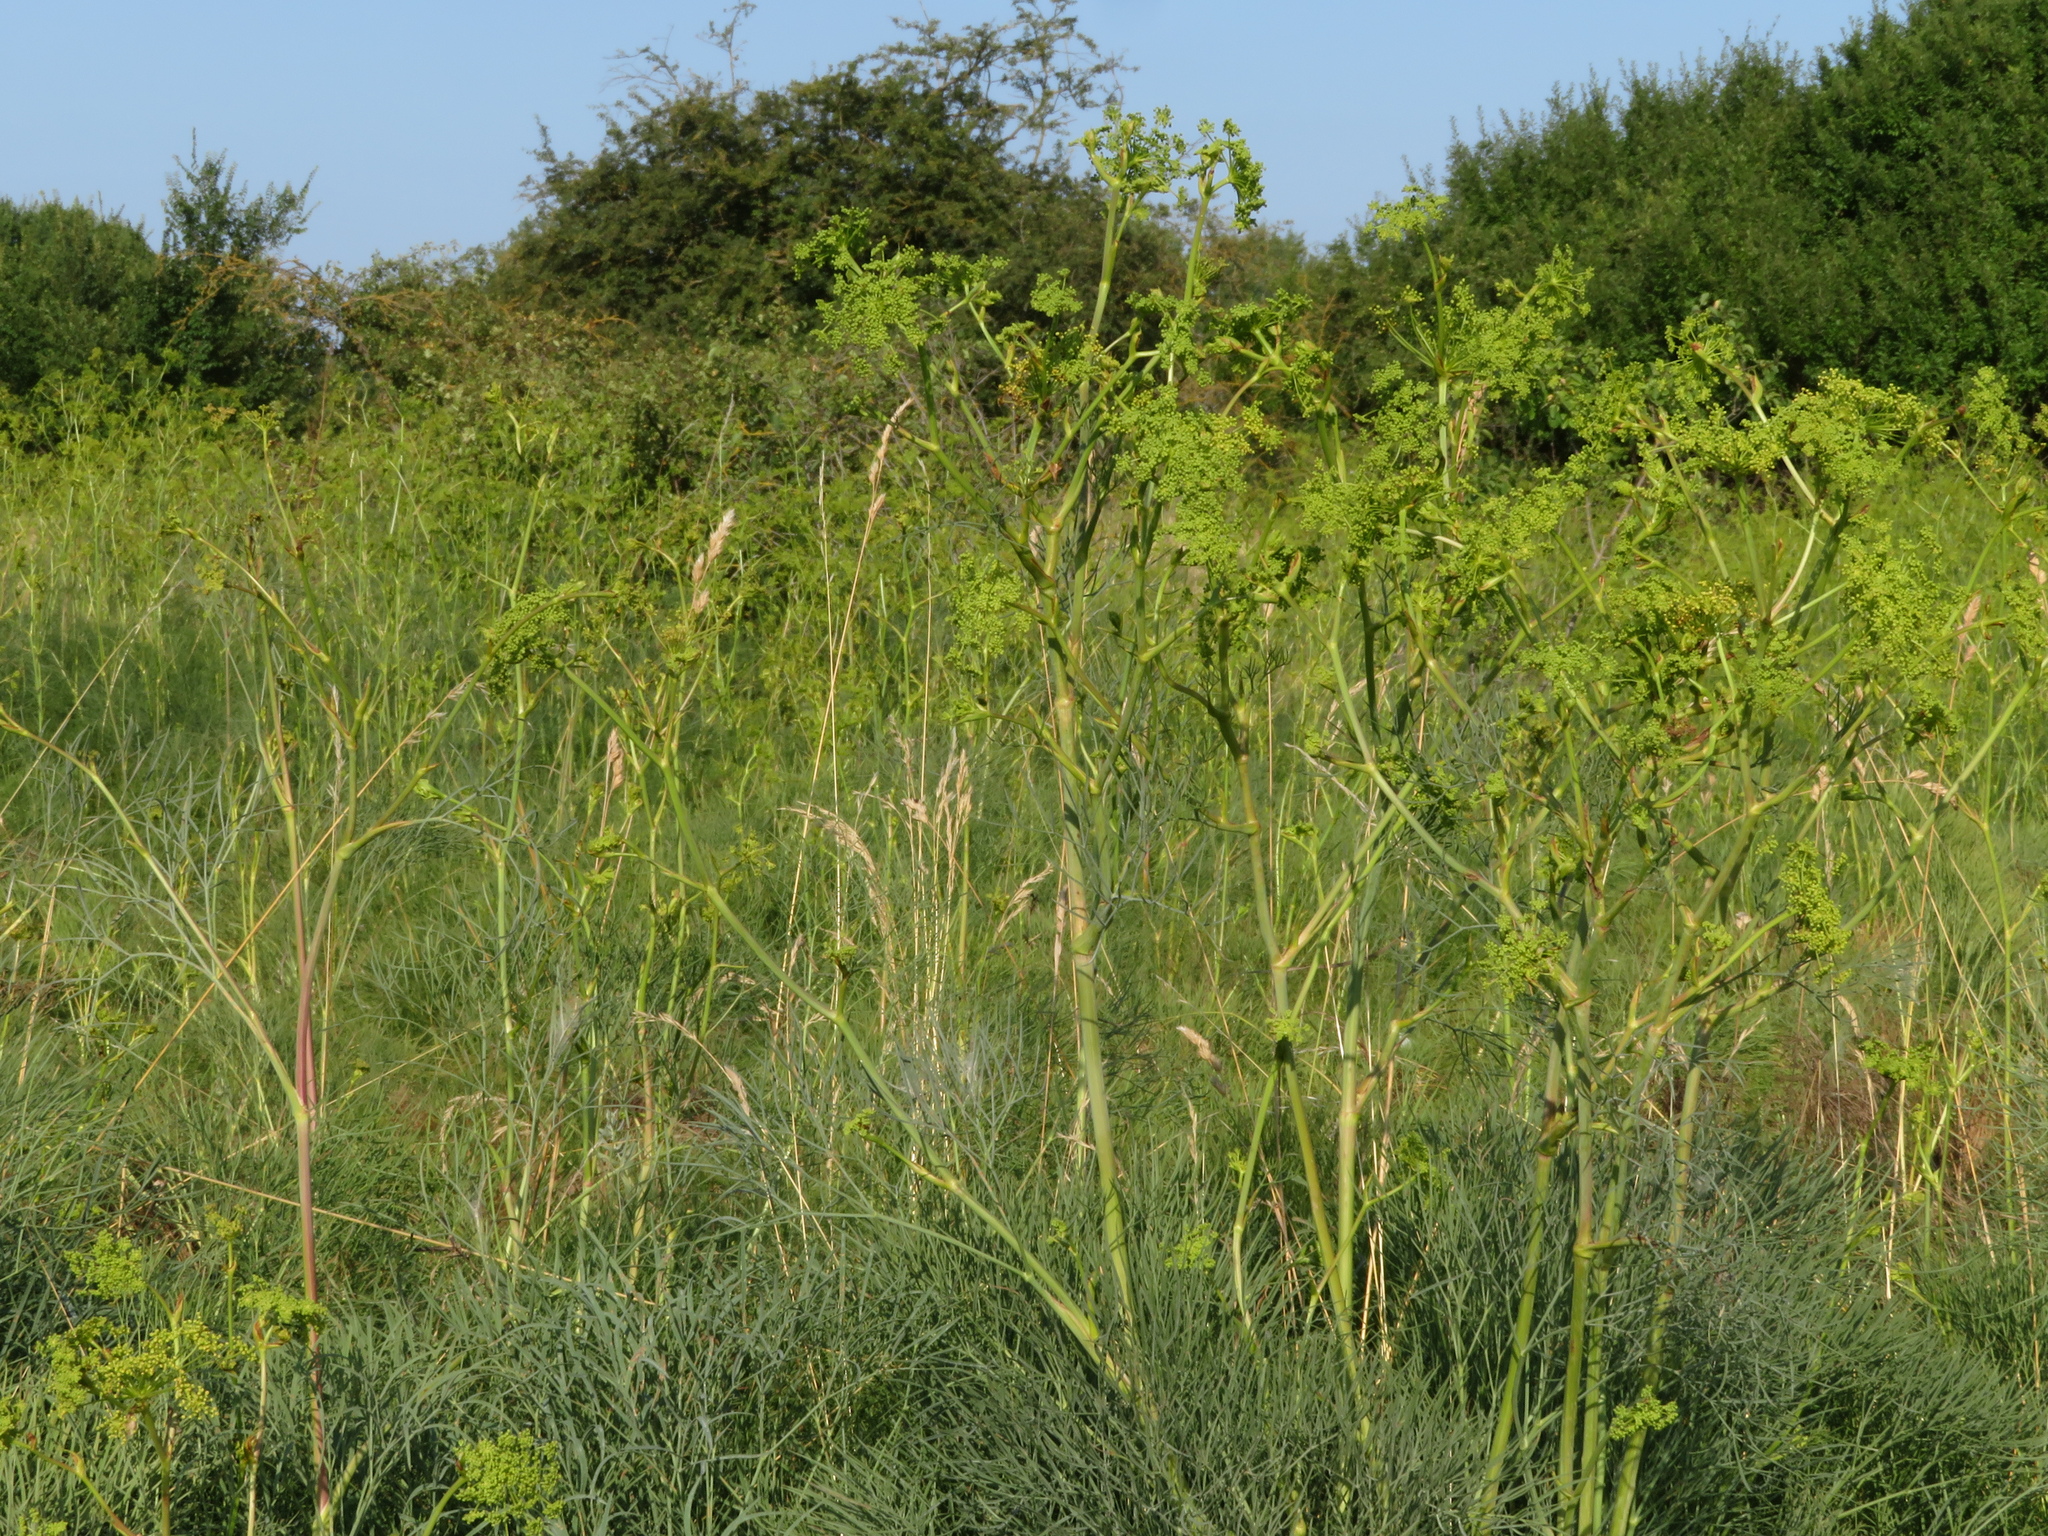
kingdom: Plantae
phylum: Tracheophyta
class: Magnoliopsida
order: Apiales
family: Apiaceae
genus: Peucedanum
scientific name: Peucedanum officinale
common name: Sulphurweed
